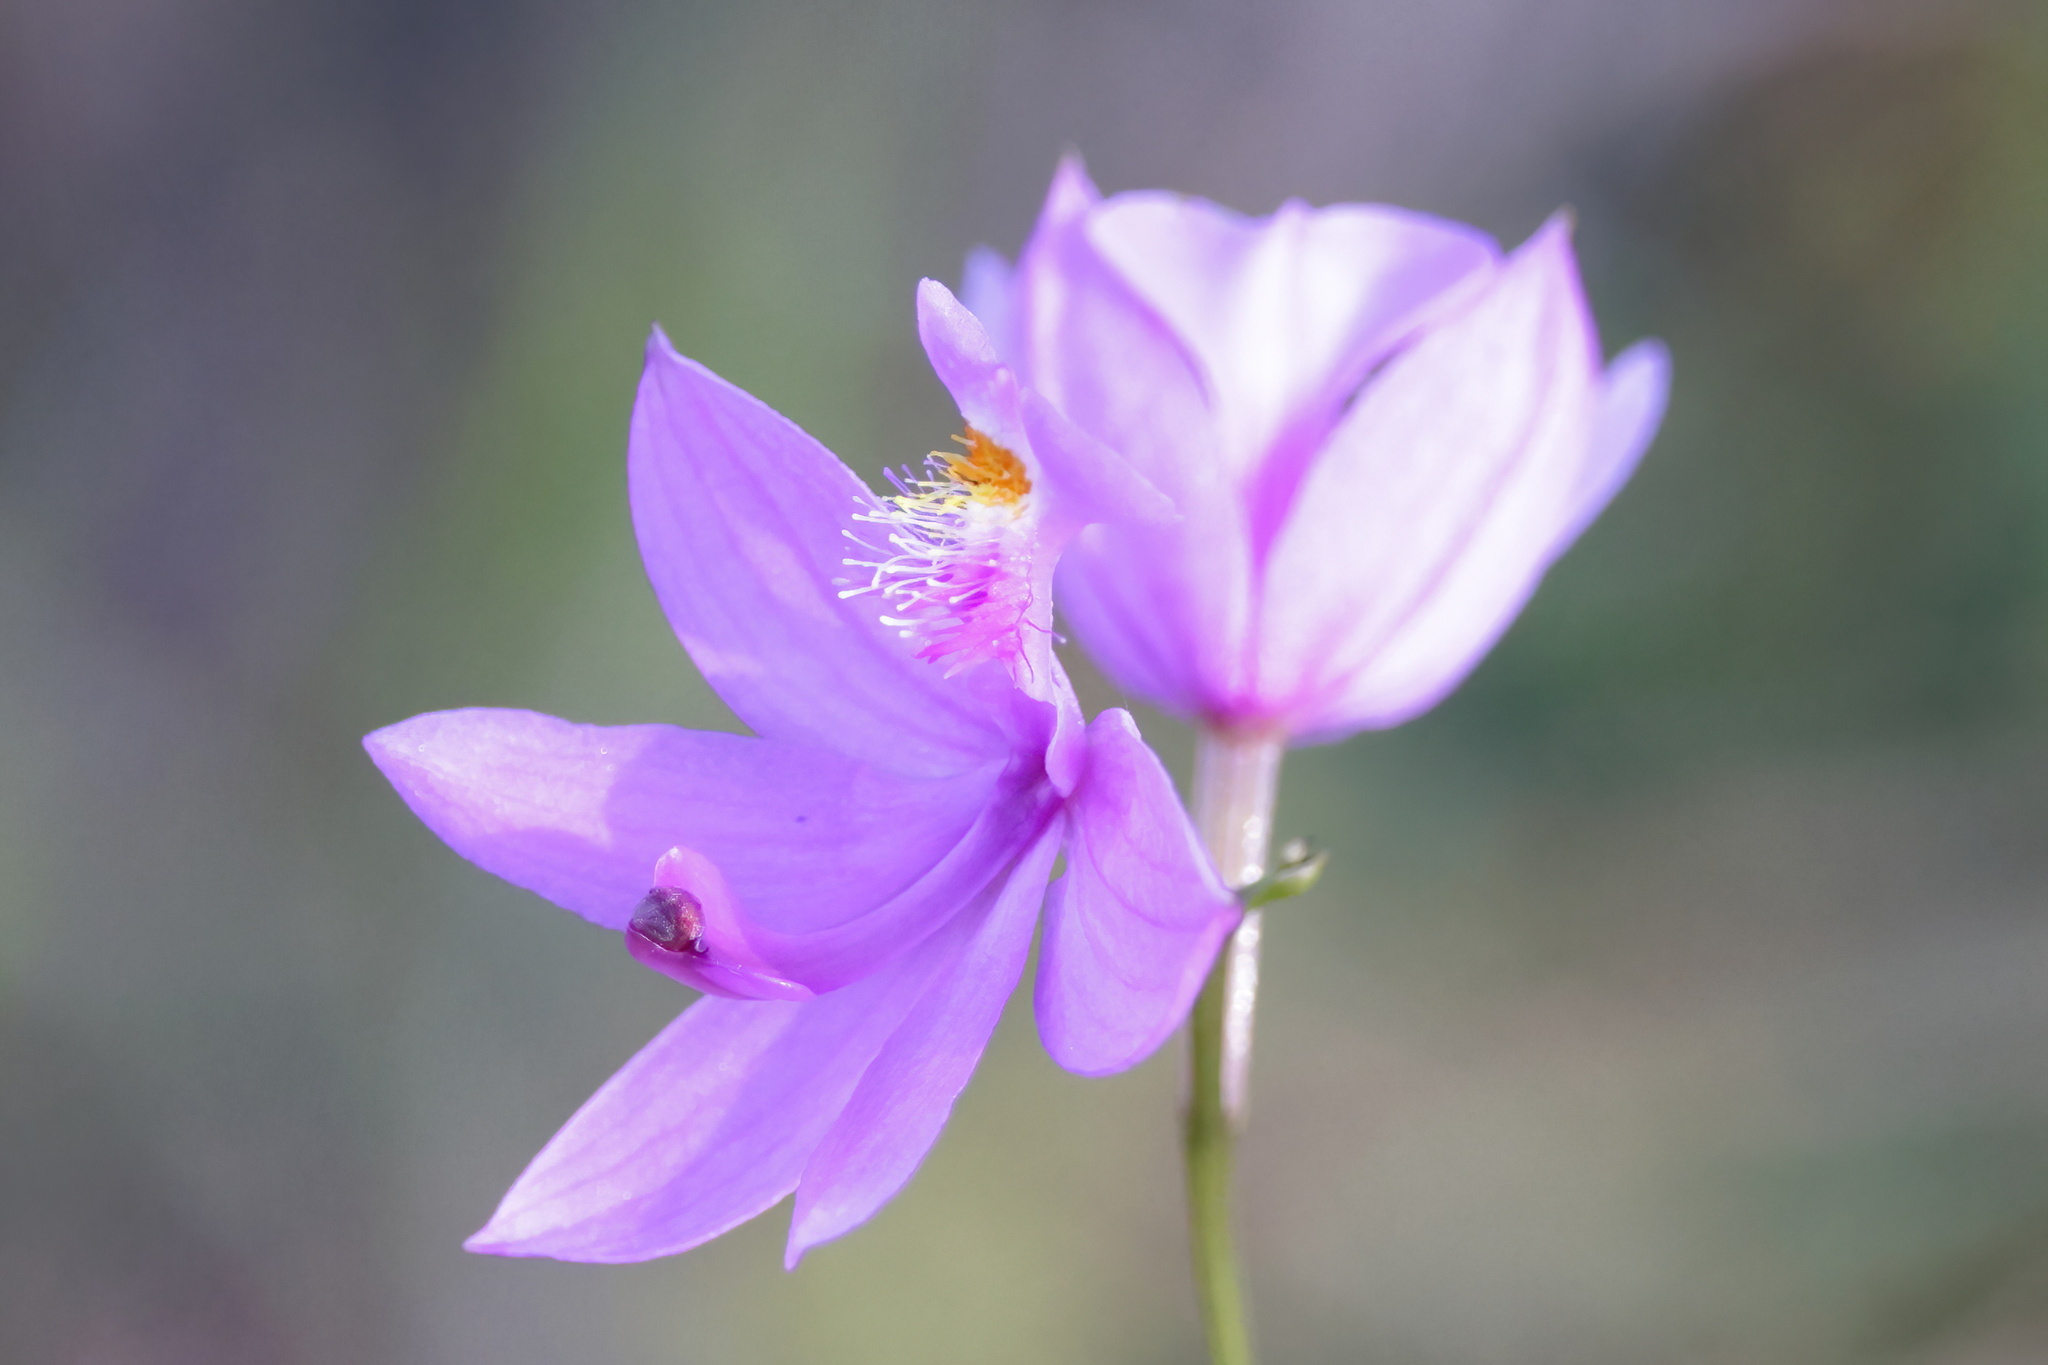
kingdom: Plantae
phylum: Tracheophyta
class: Liliopsida
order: Asparagales
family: Orchidaceae
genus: Calopogon
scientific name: Calopogon tuberosus
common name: Grass-pink
